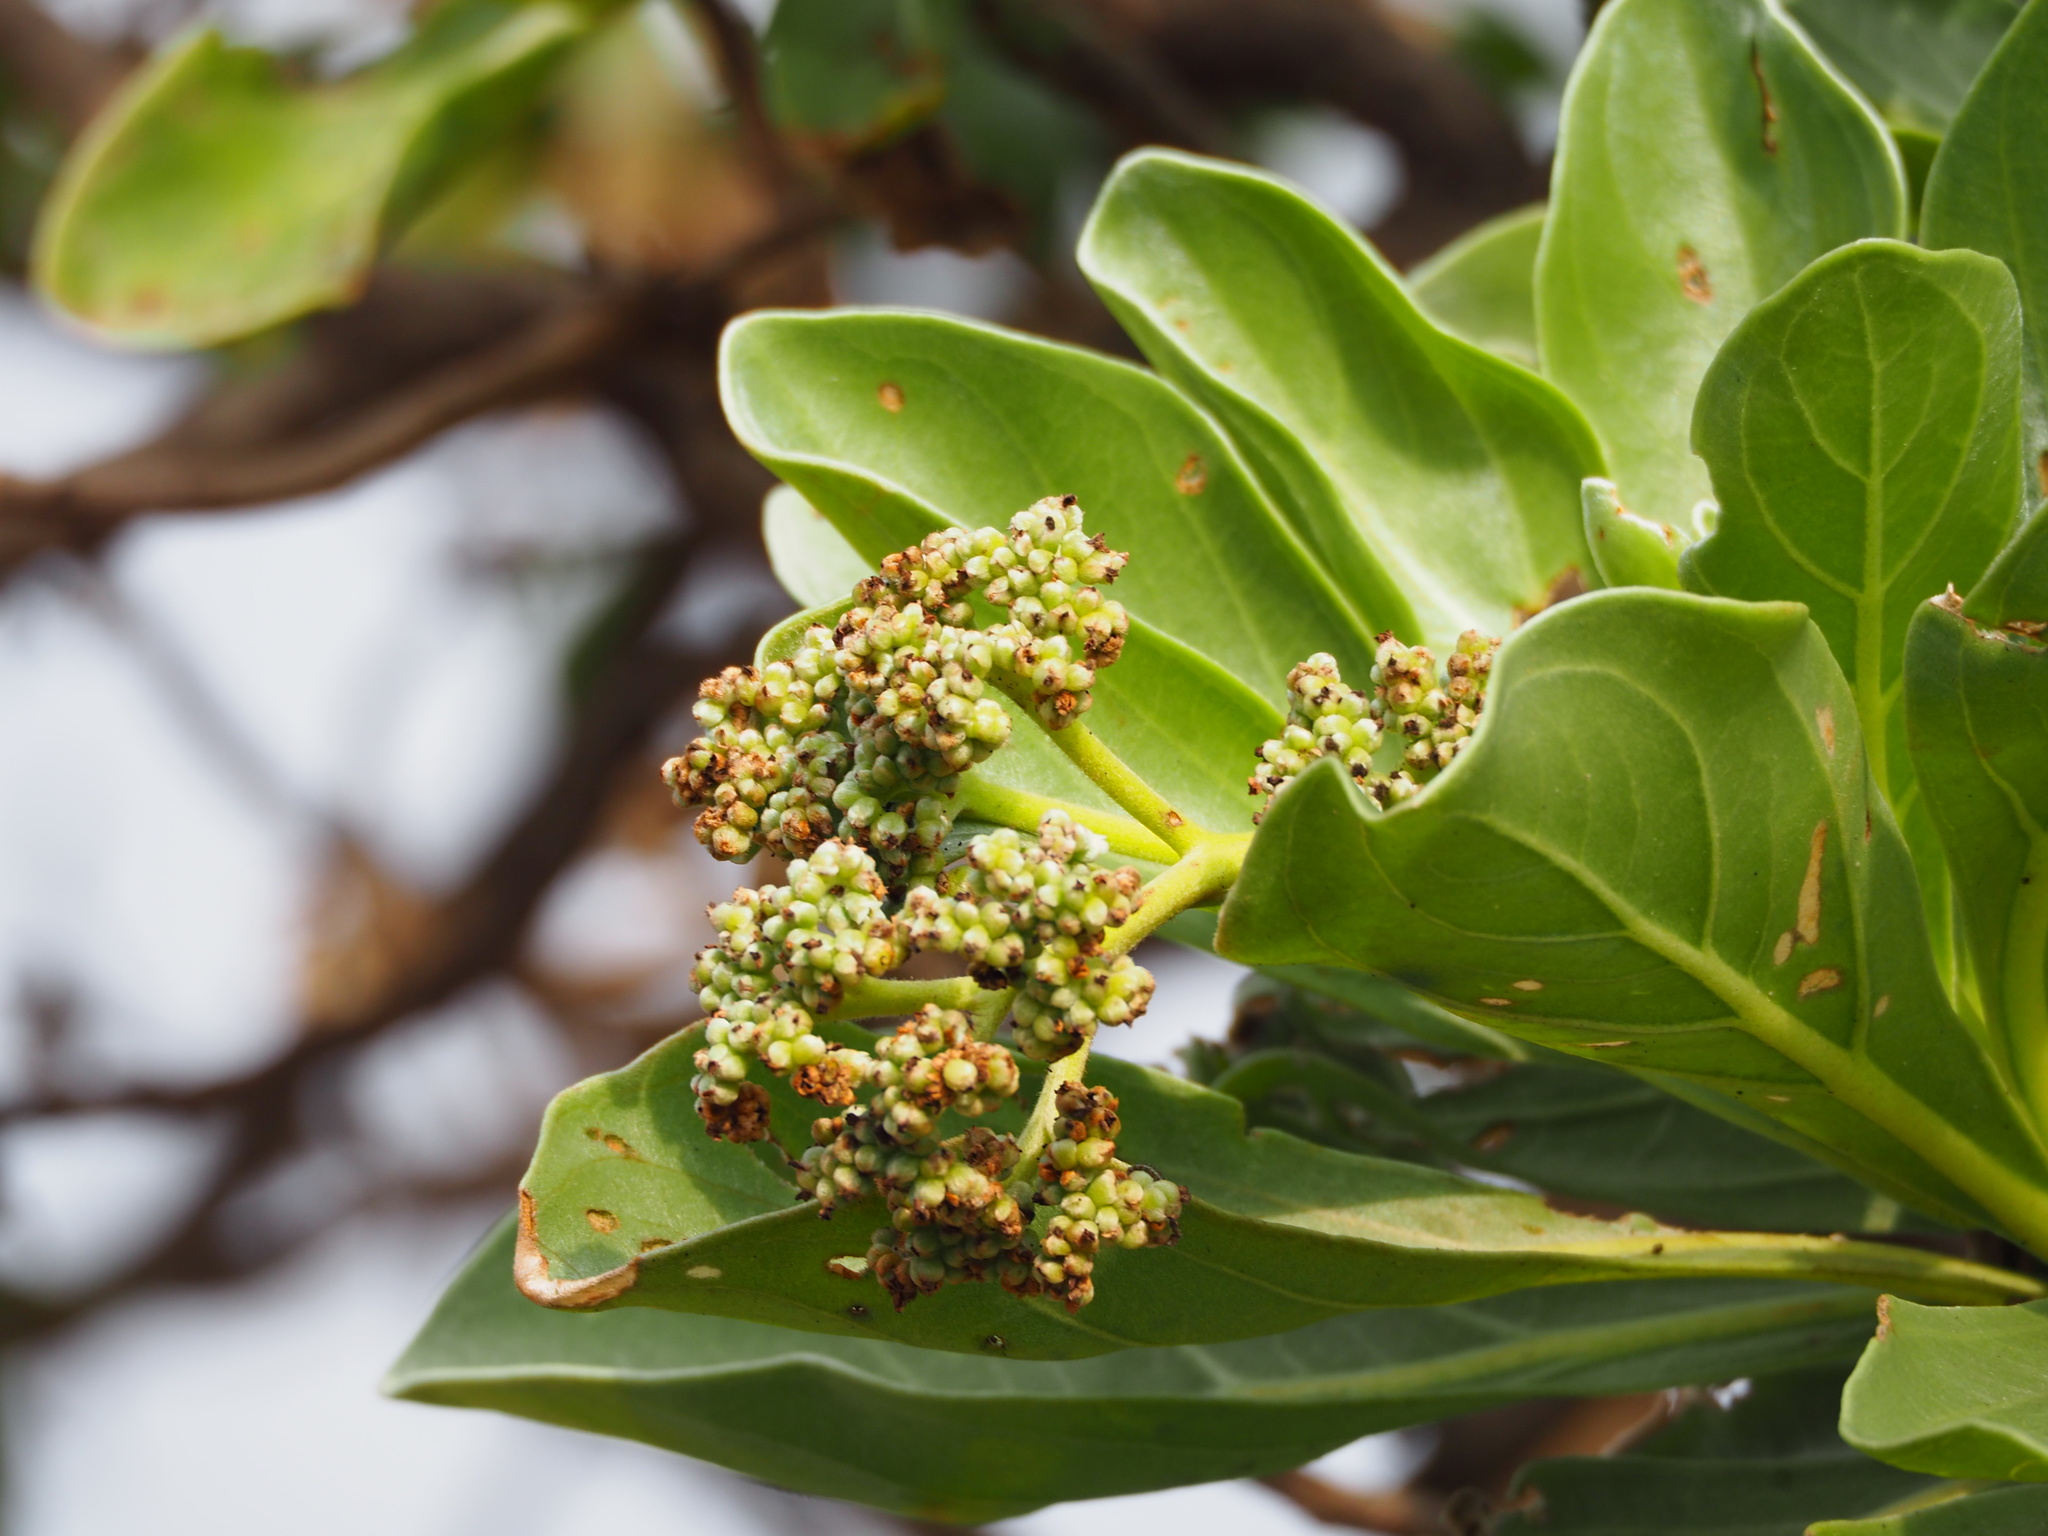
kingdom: Plantae
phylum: Tracheophyta
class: Magnoliopsida
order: Boraginales
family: Heliotropiaceae
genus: Heliotropium
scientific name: Heliotropium velutinum
